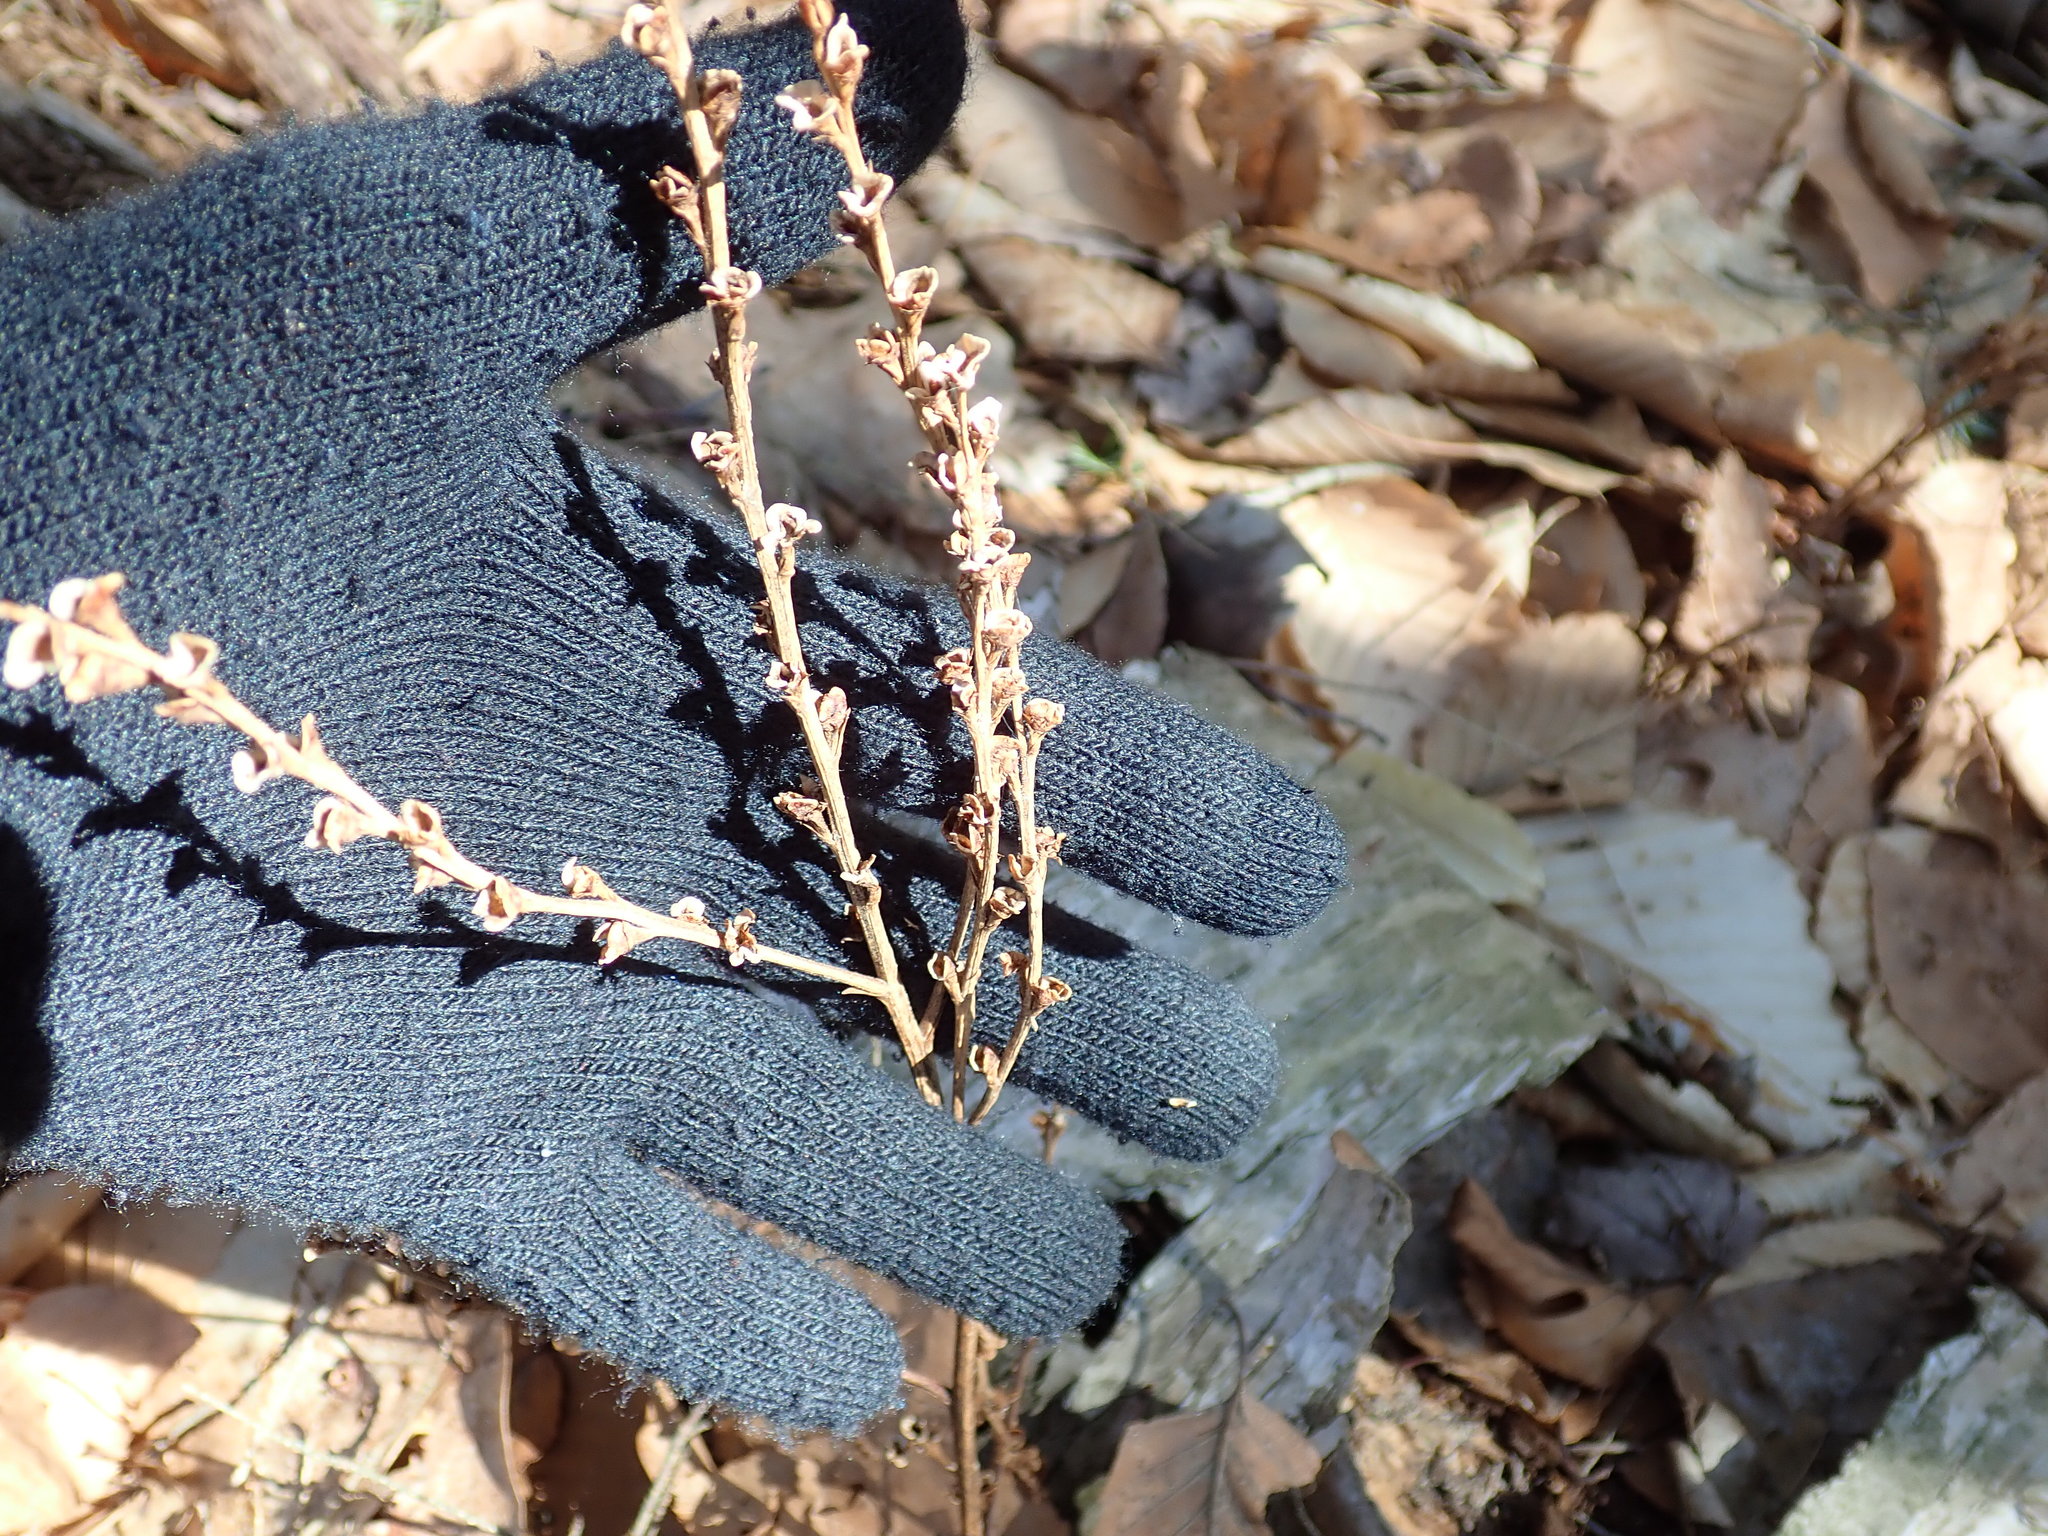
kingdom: Plantae
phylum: Tracheophyta
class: Magnoliopsida
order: Lamiales
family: Orobanchaceae
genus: Epifagus
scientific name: Epifagus virginiana
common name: Beechdrops
